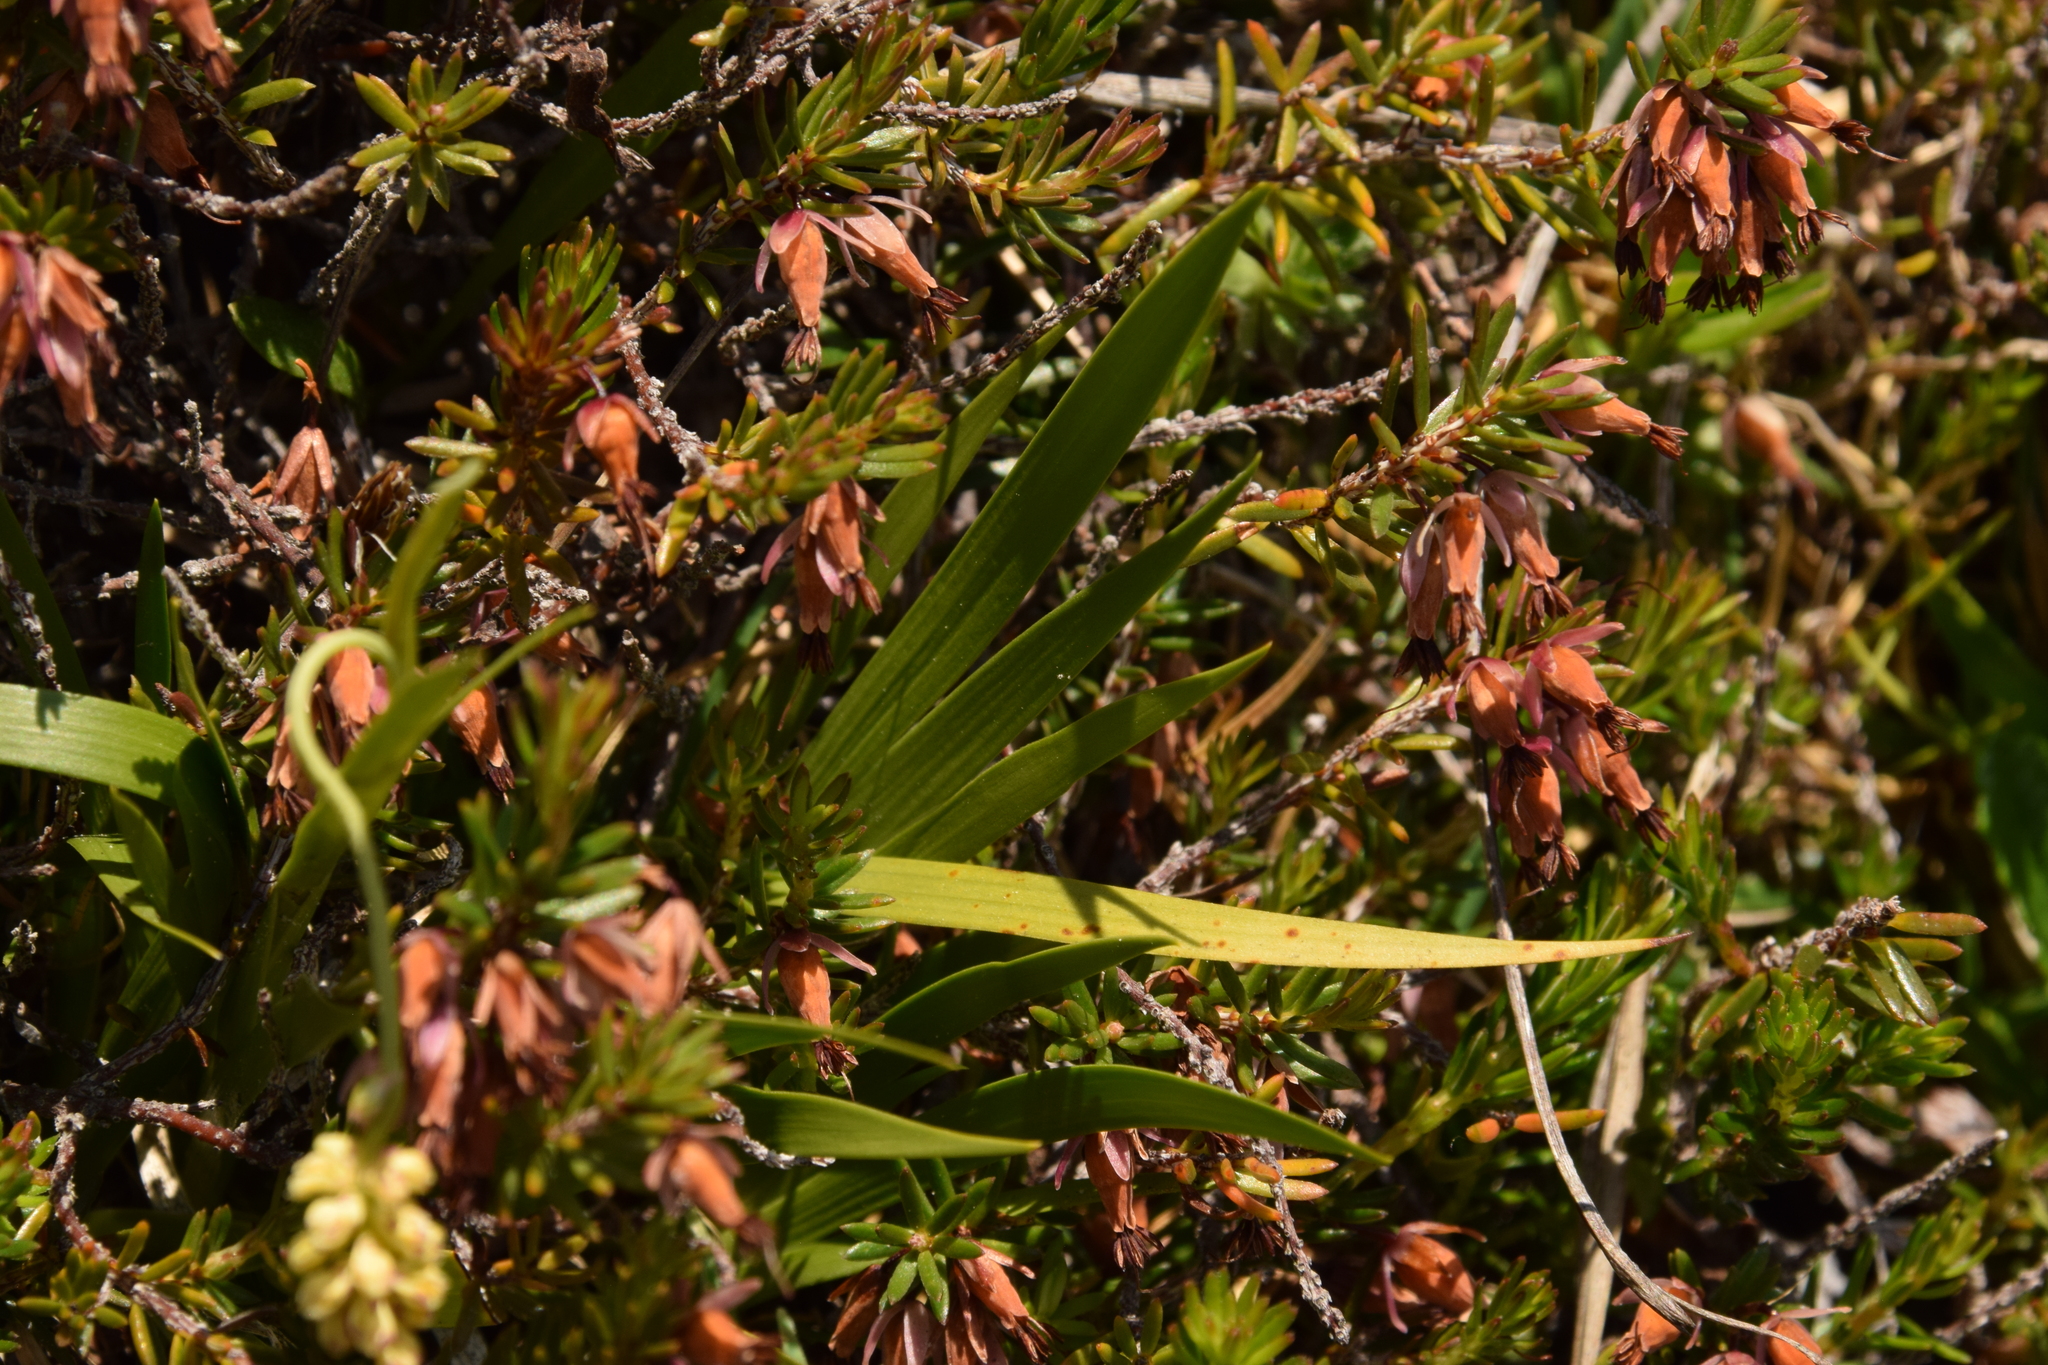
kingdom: Plantae
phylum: Tracheophyta
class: Magnoliopsida
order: Ericales
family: Ericaceae
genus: Erica
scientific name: Erica carnea
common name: Winter heath
